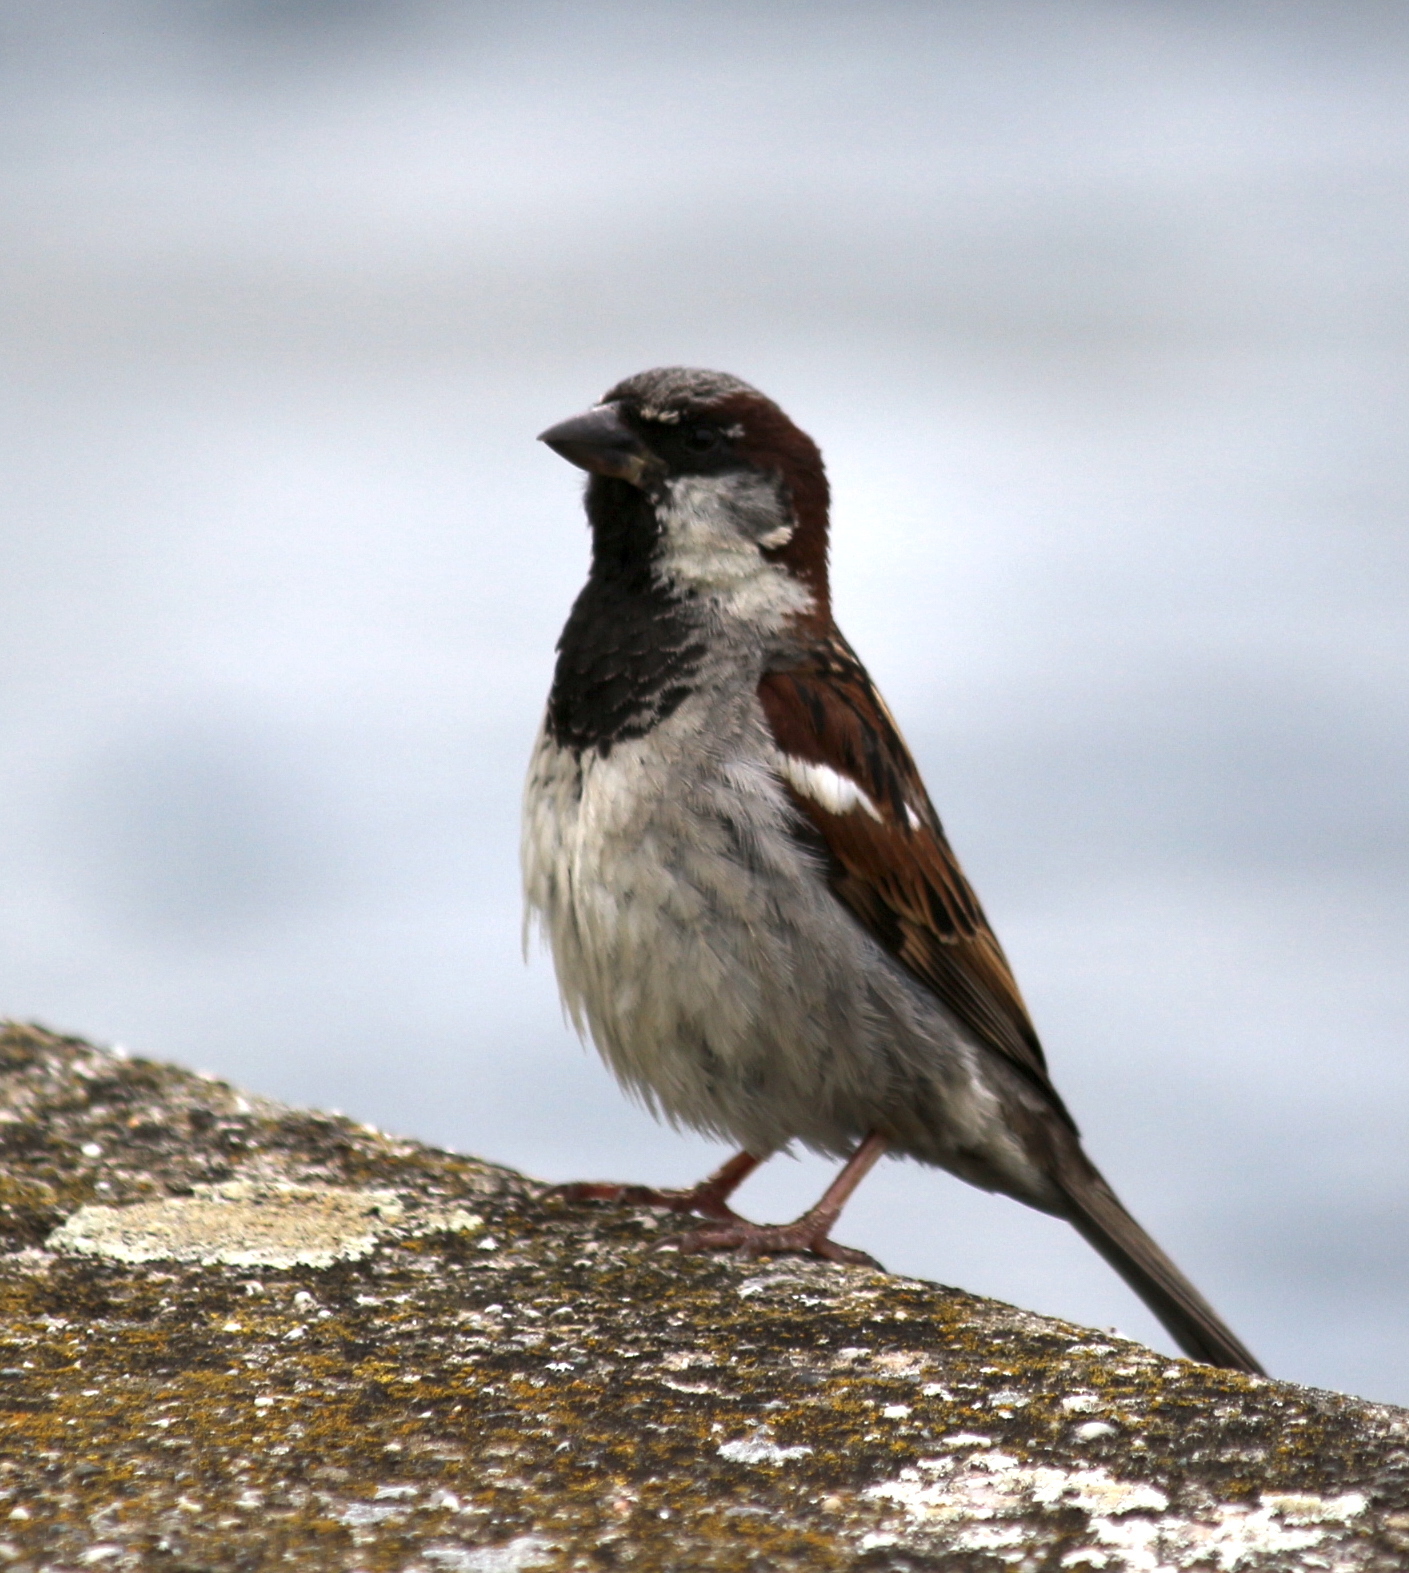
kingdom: Animalia
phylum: Chordata
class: Aves
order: Passeriformes
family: Passeridae
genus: Passer
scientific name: Passer domesticus
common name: House sparrow
